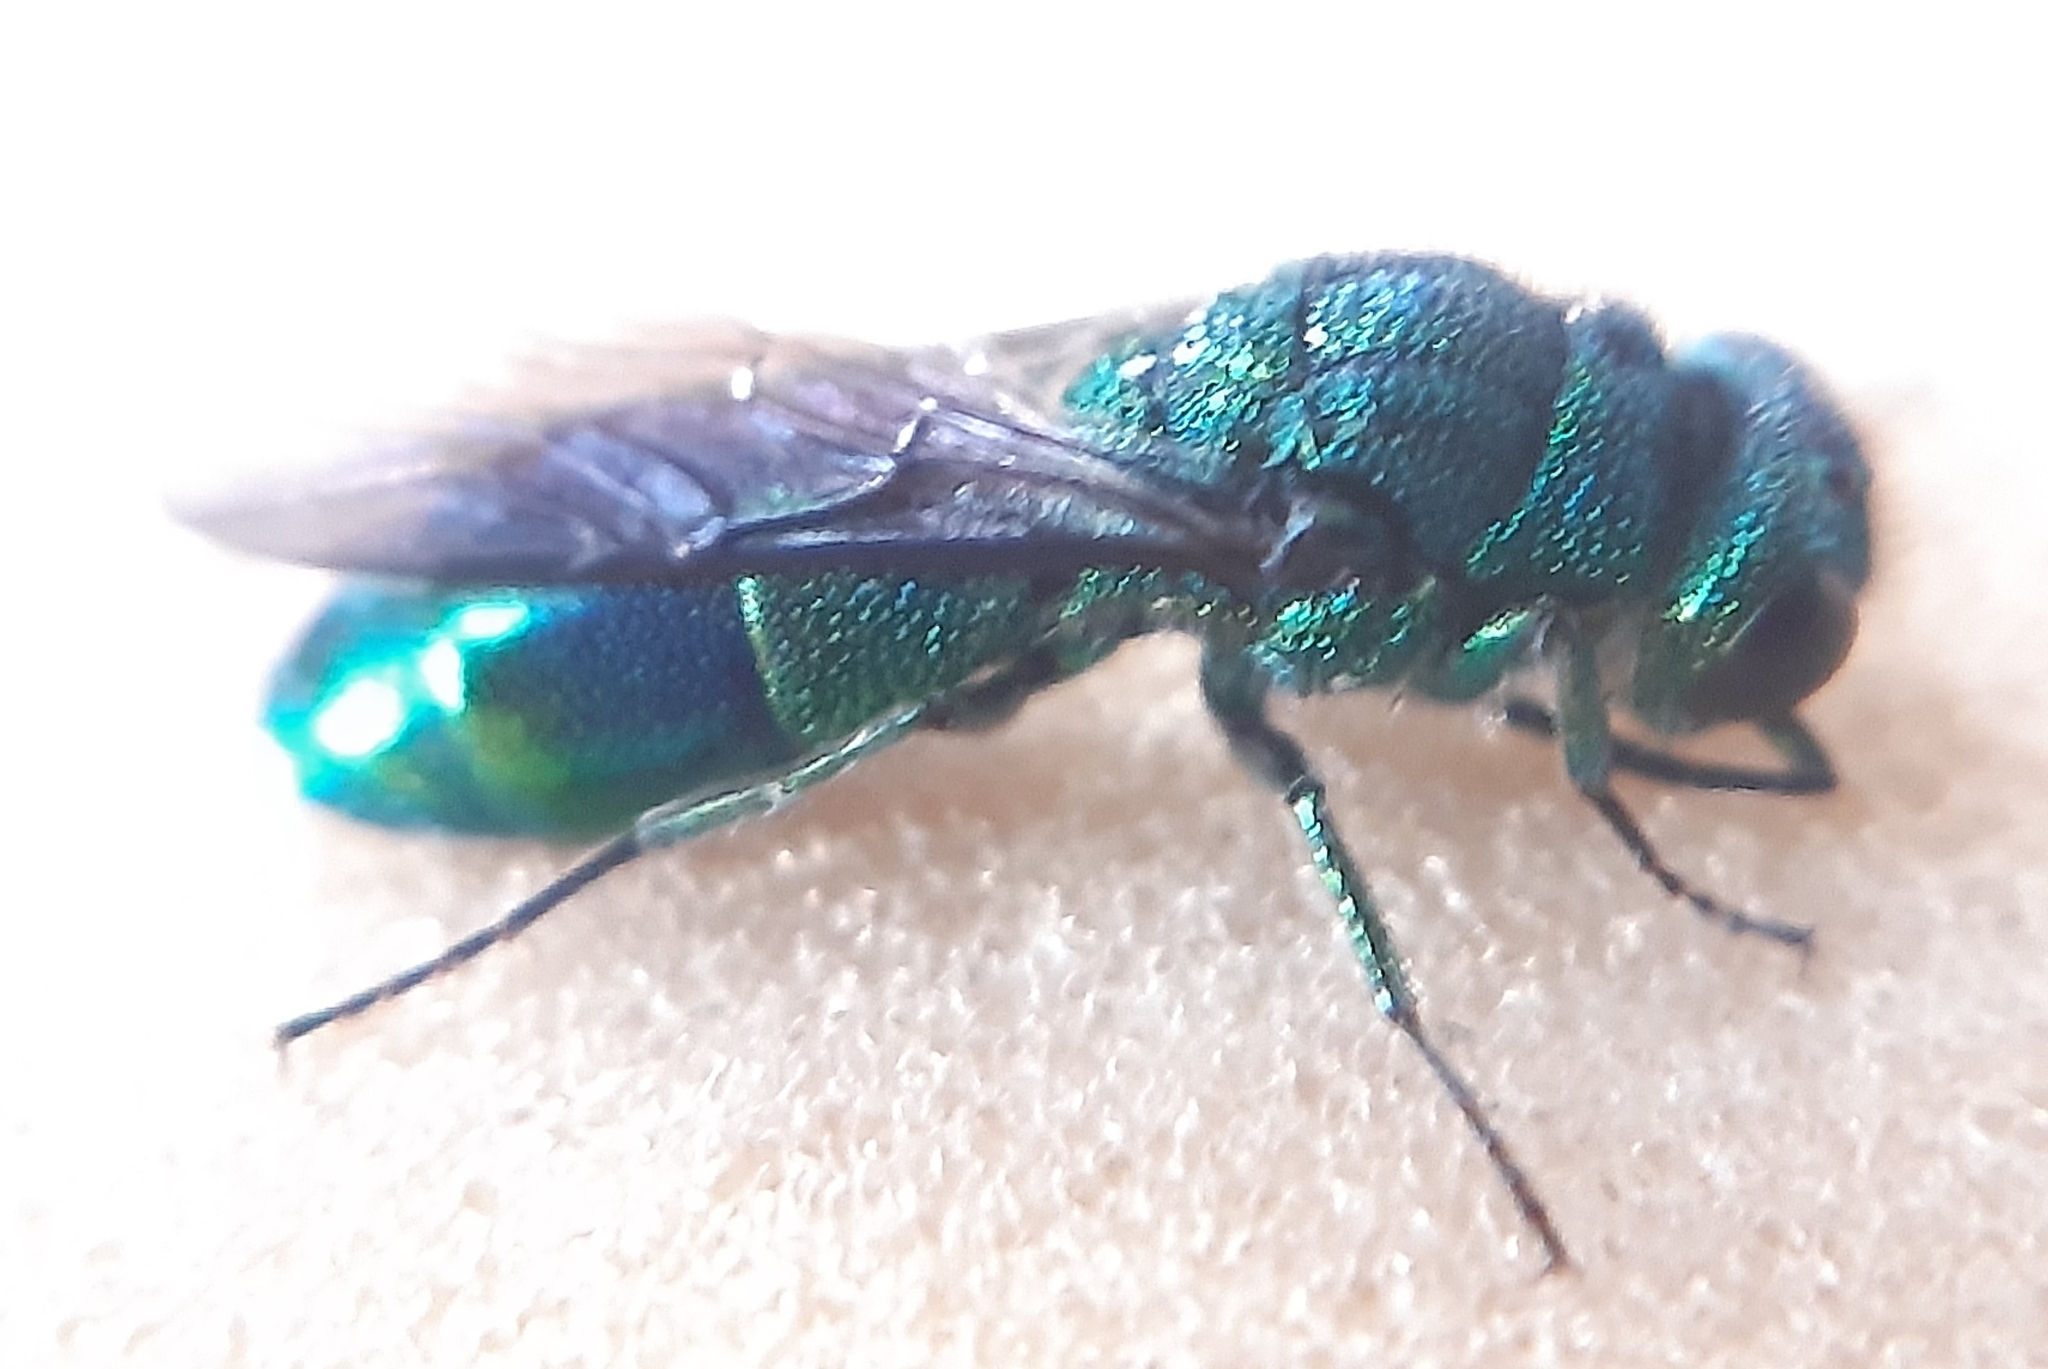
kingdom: Animalia
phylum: Arthropoda
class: Insecta
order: Hymenoptera
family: Chrysididae
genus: Chrysis
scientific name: Chrysis iris
